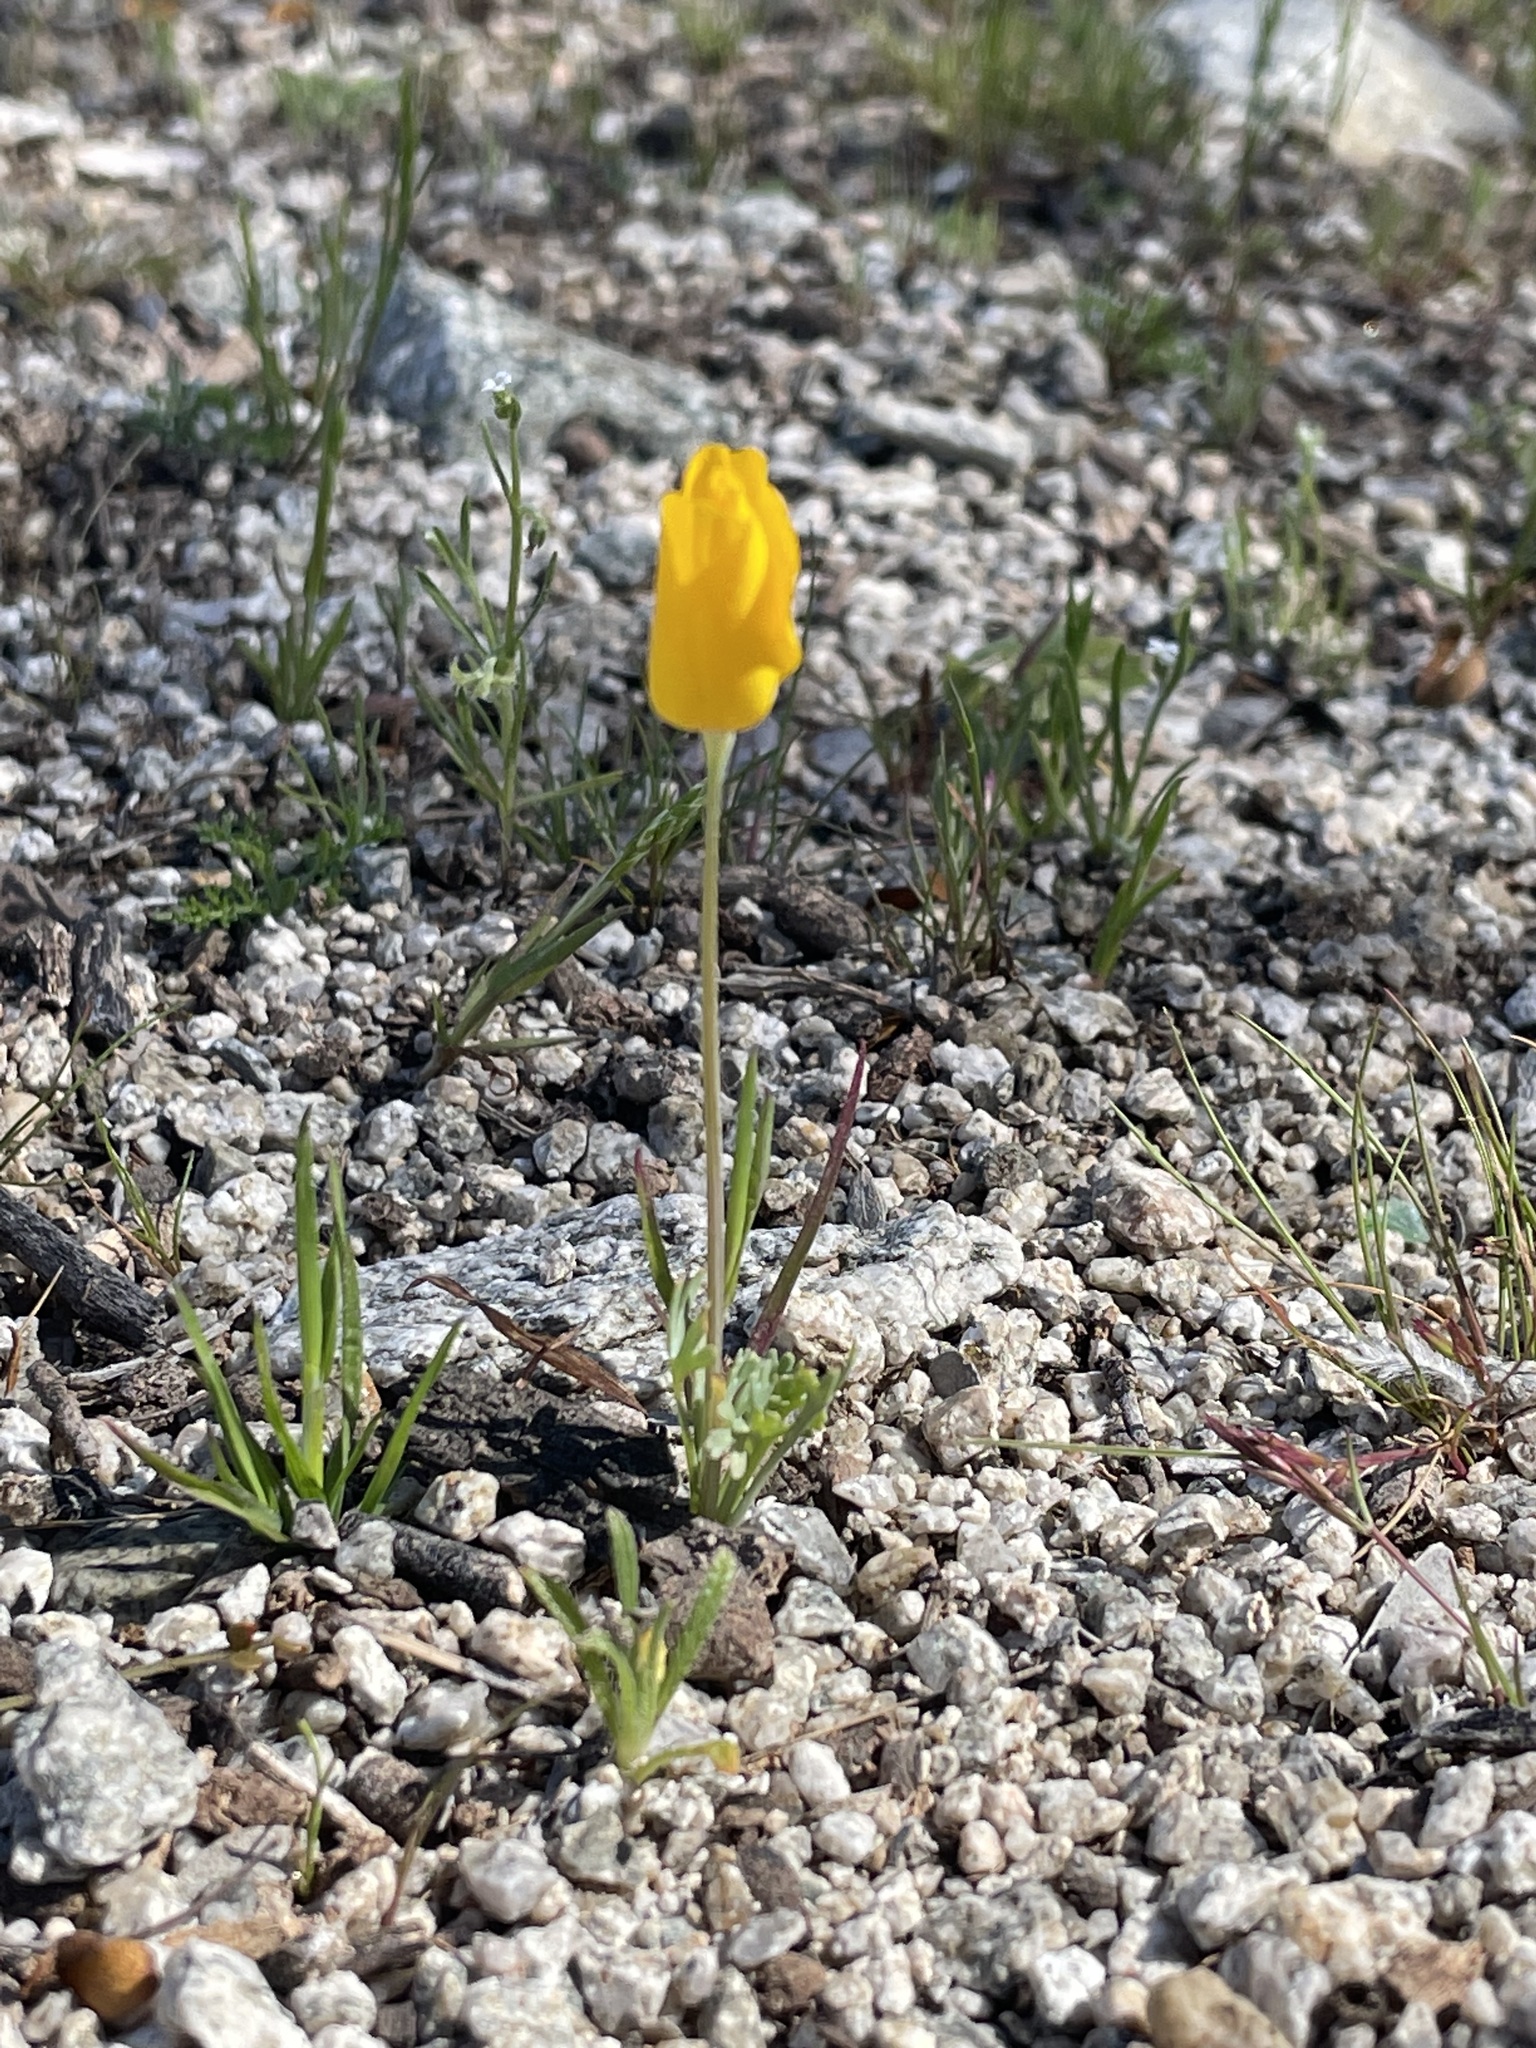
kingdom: Plantae
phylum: Tracheophyta
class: Magnoliopsida
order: Ranunculales
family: Papaveraceae
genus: Eschscholzia
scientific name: Eschscholzia californica
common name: California poppy
